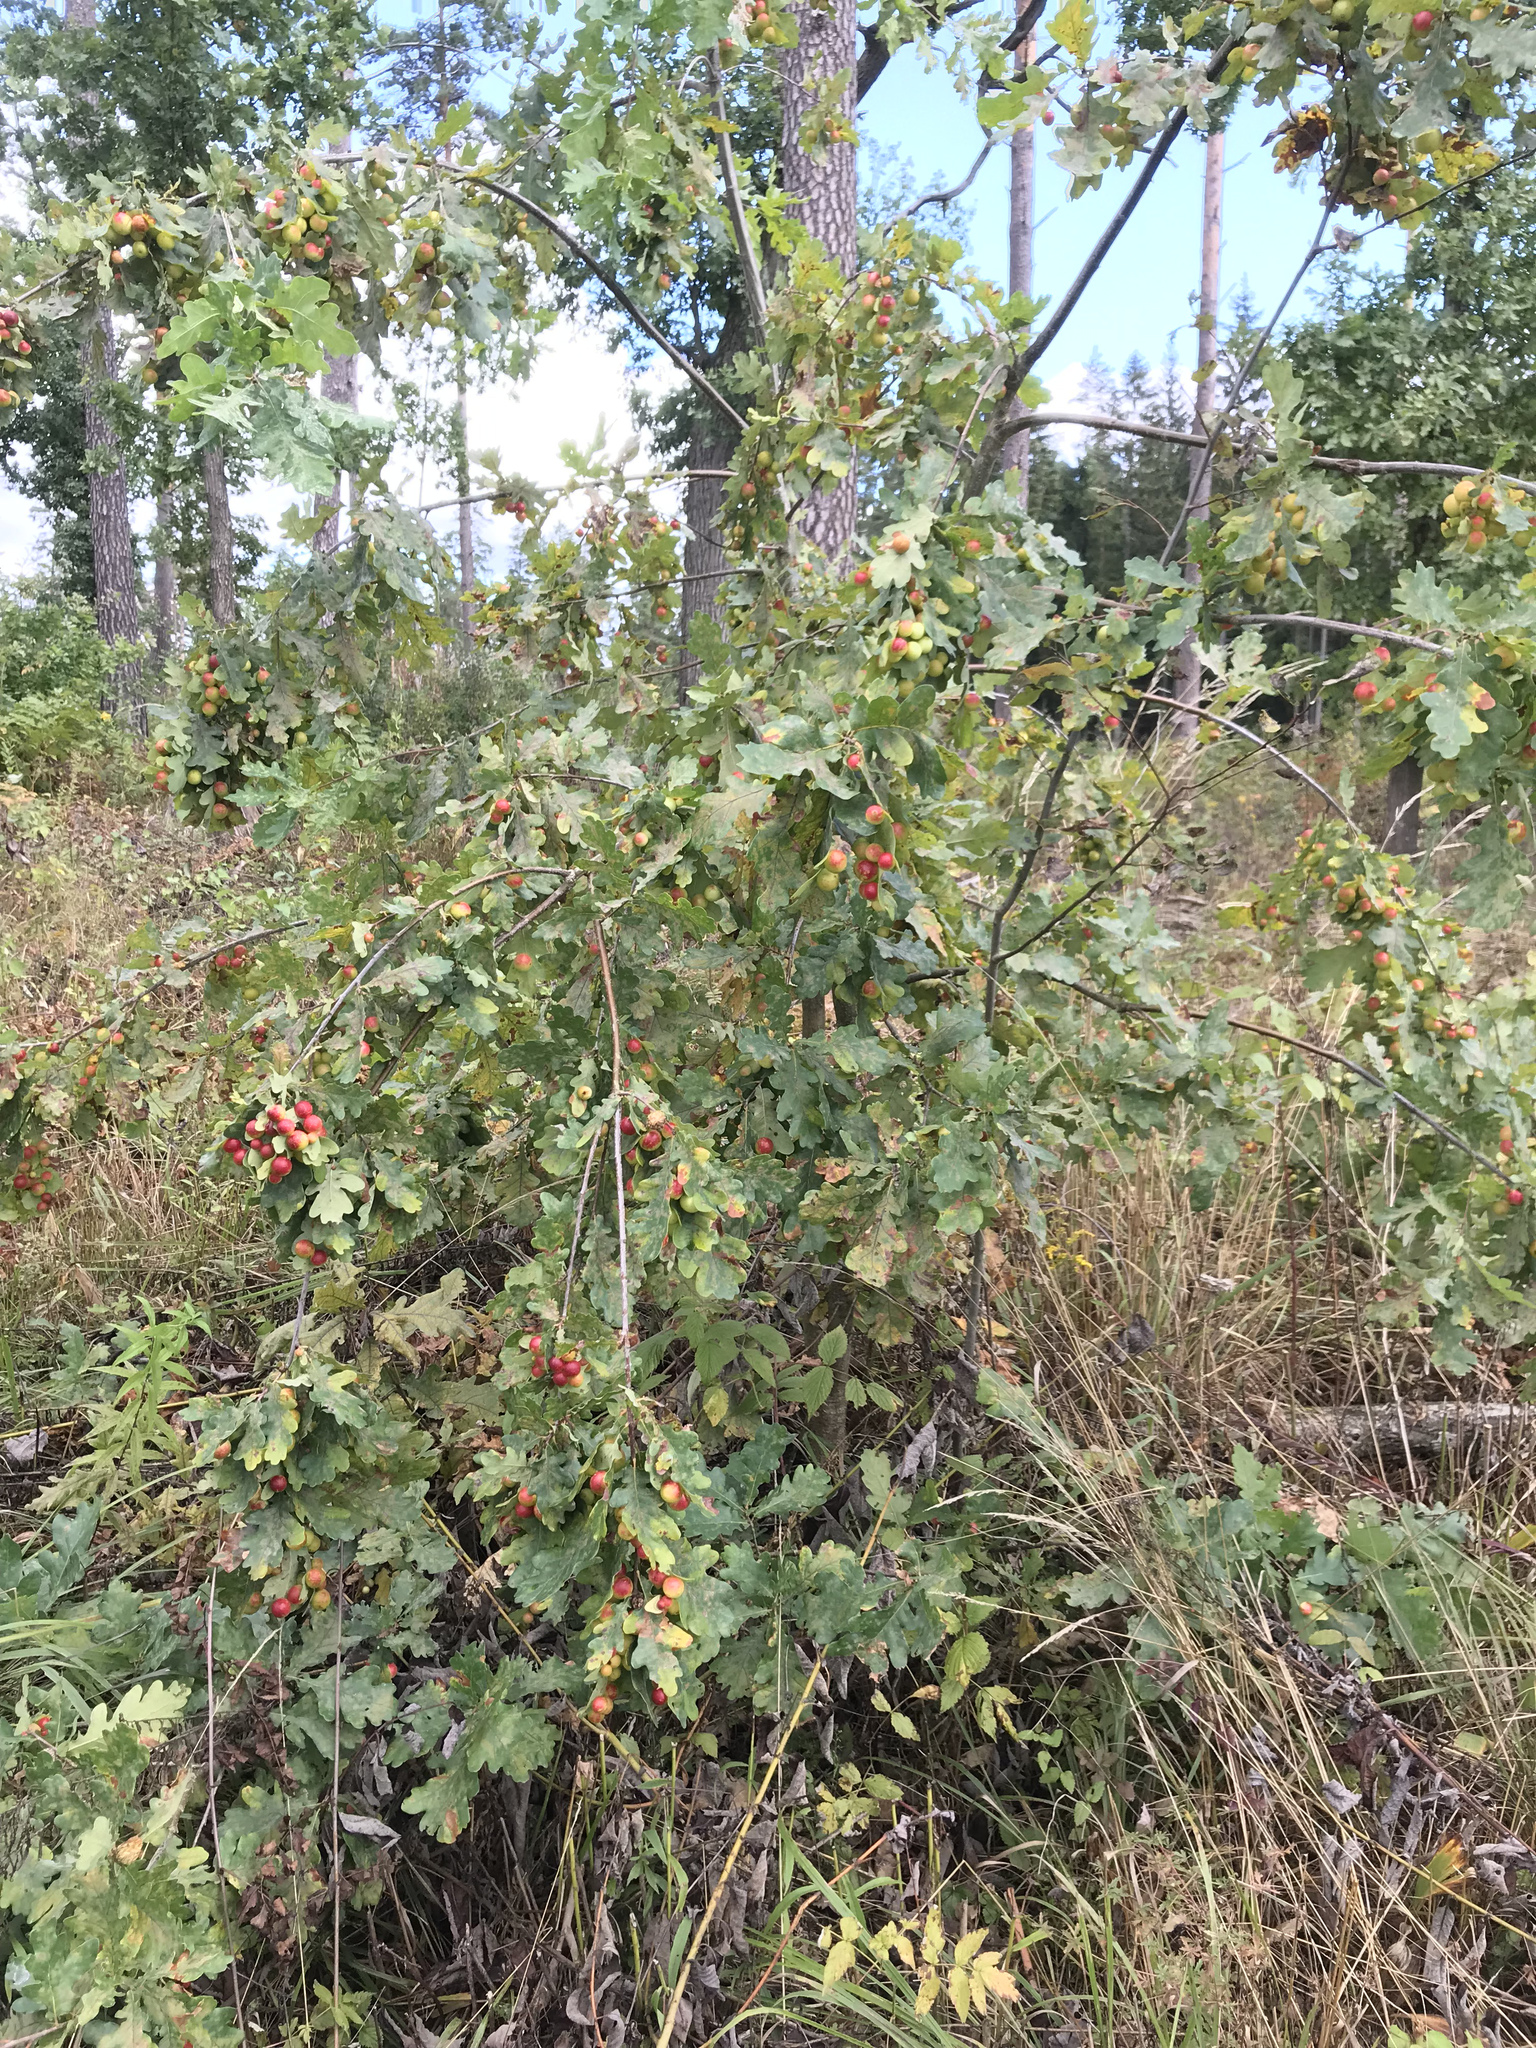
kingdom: Animalia
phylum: Arthropoda
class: Insecta
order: Hymenoptera
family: Cynipidae
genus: Cynips
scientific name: Cynips quercusfolii
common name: Cherry gall
